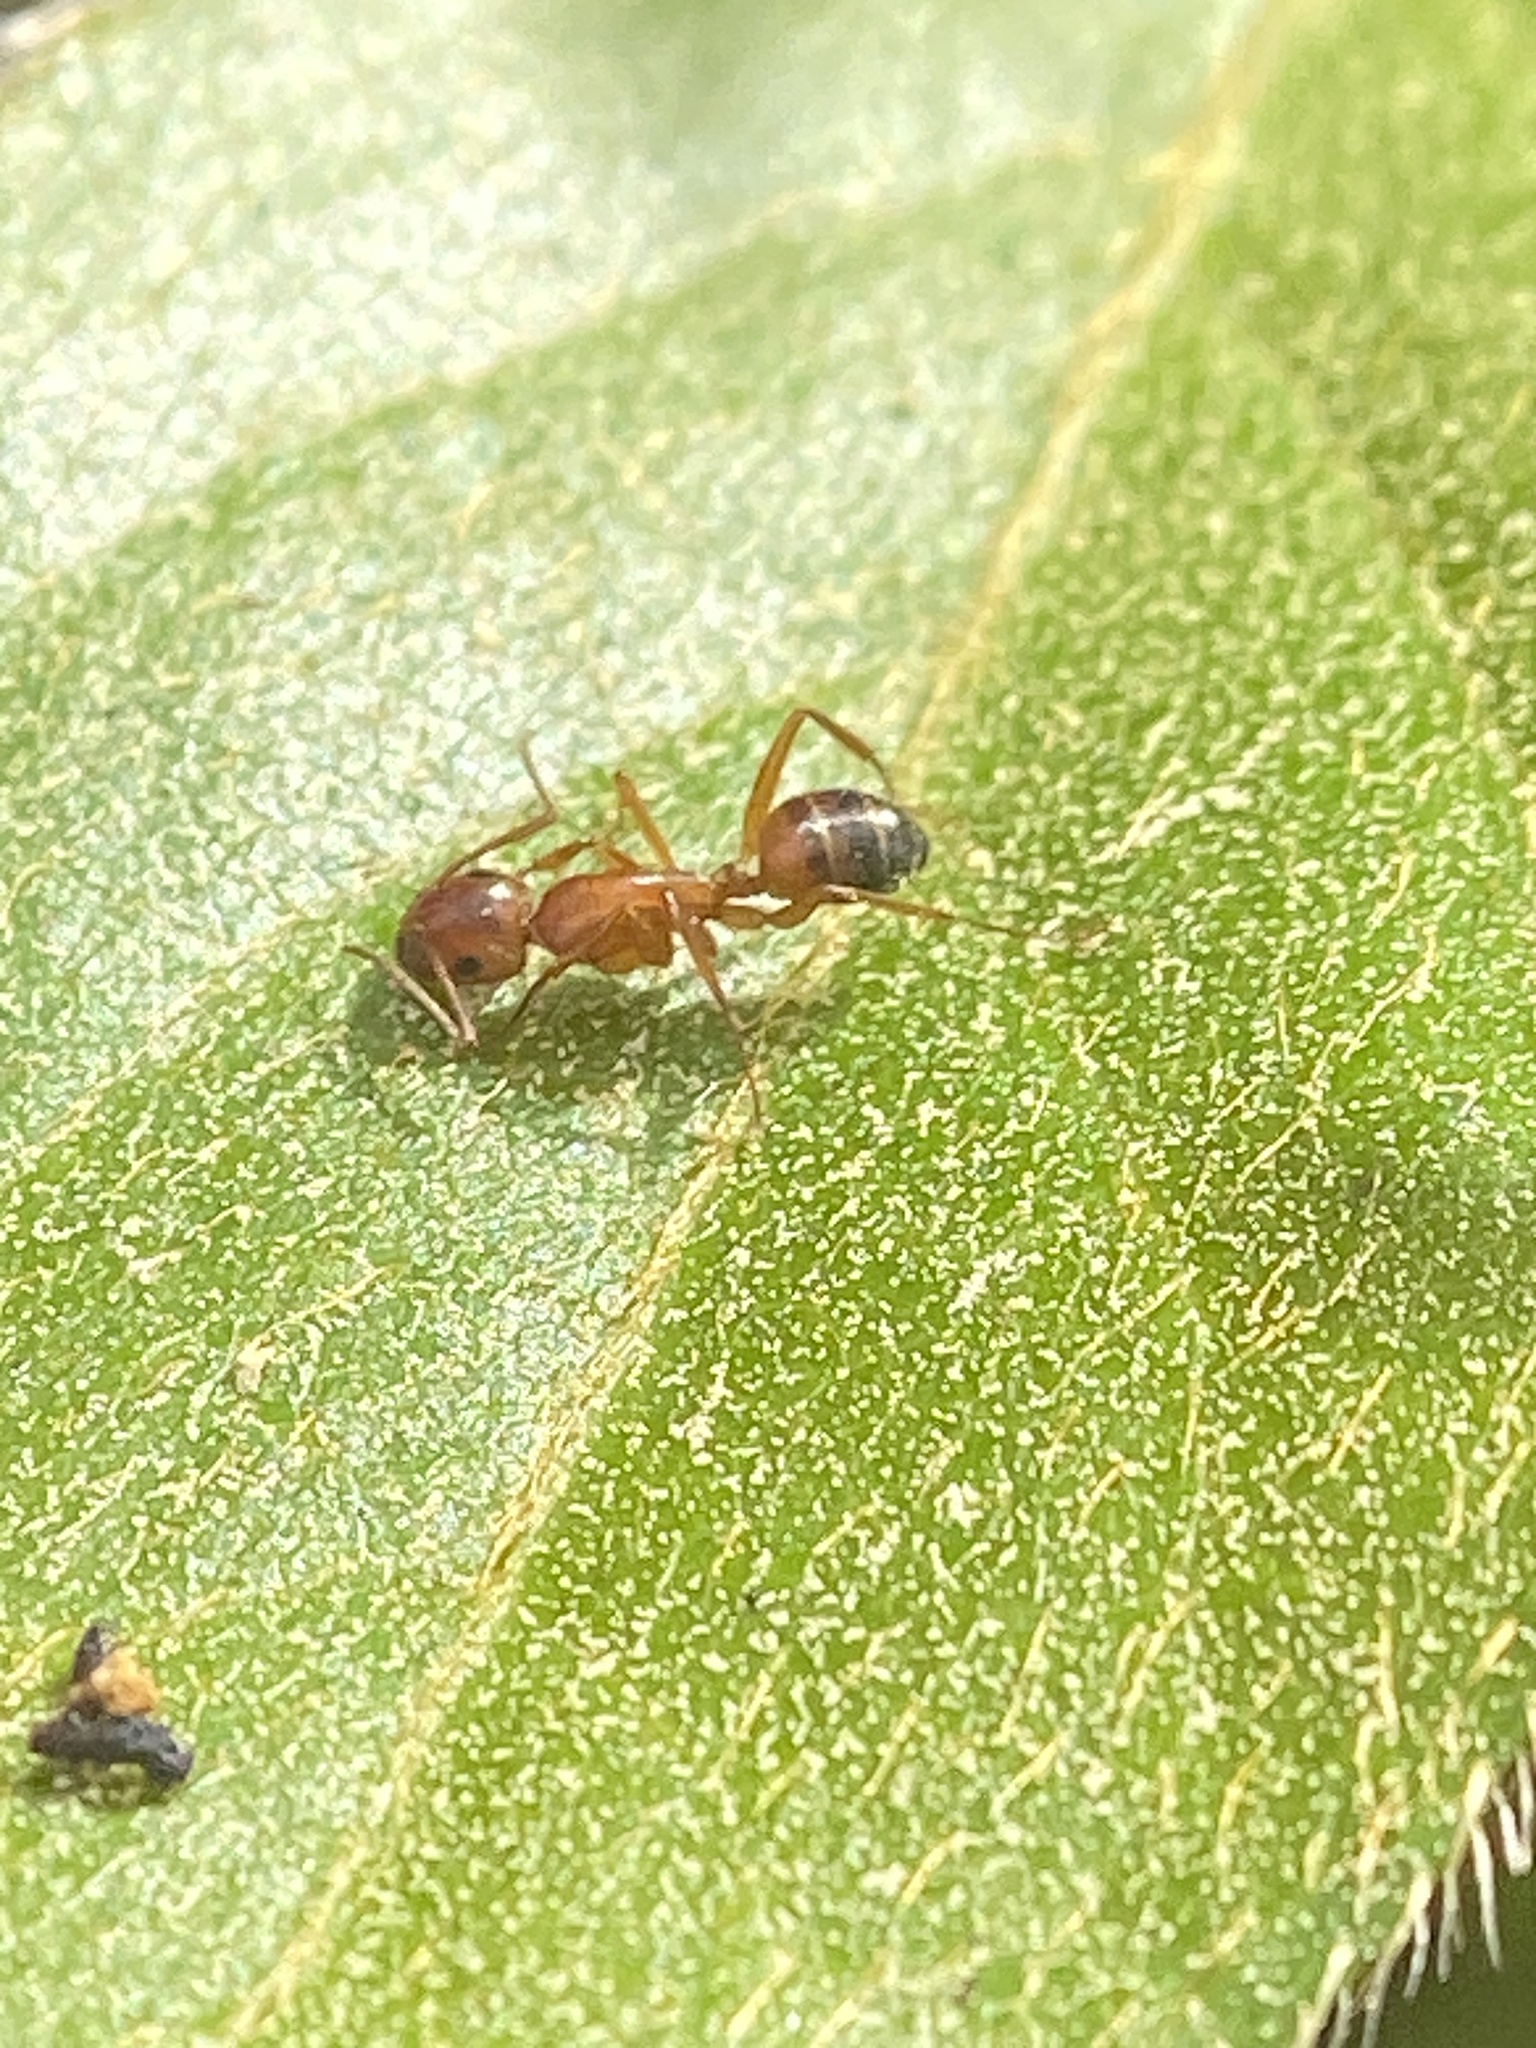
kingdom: Animalia
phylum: Arthropoda
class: Insecta
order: Hymenoptera
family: Formicidae
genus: Camponotus
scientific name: Camponotus snellingi
